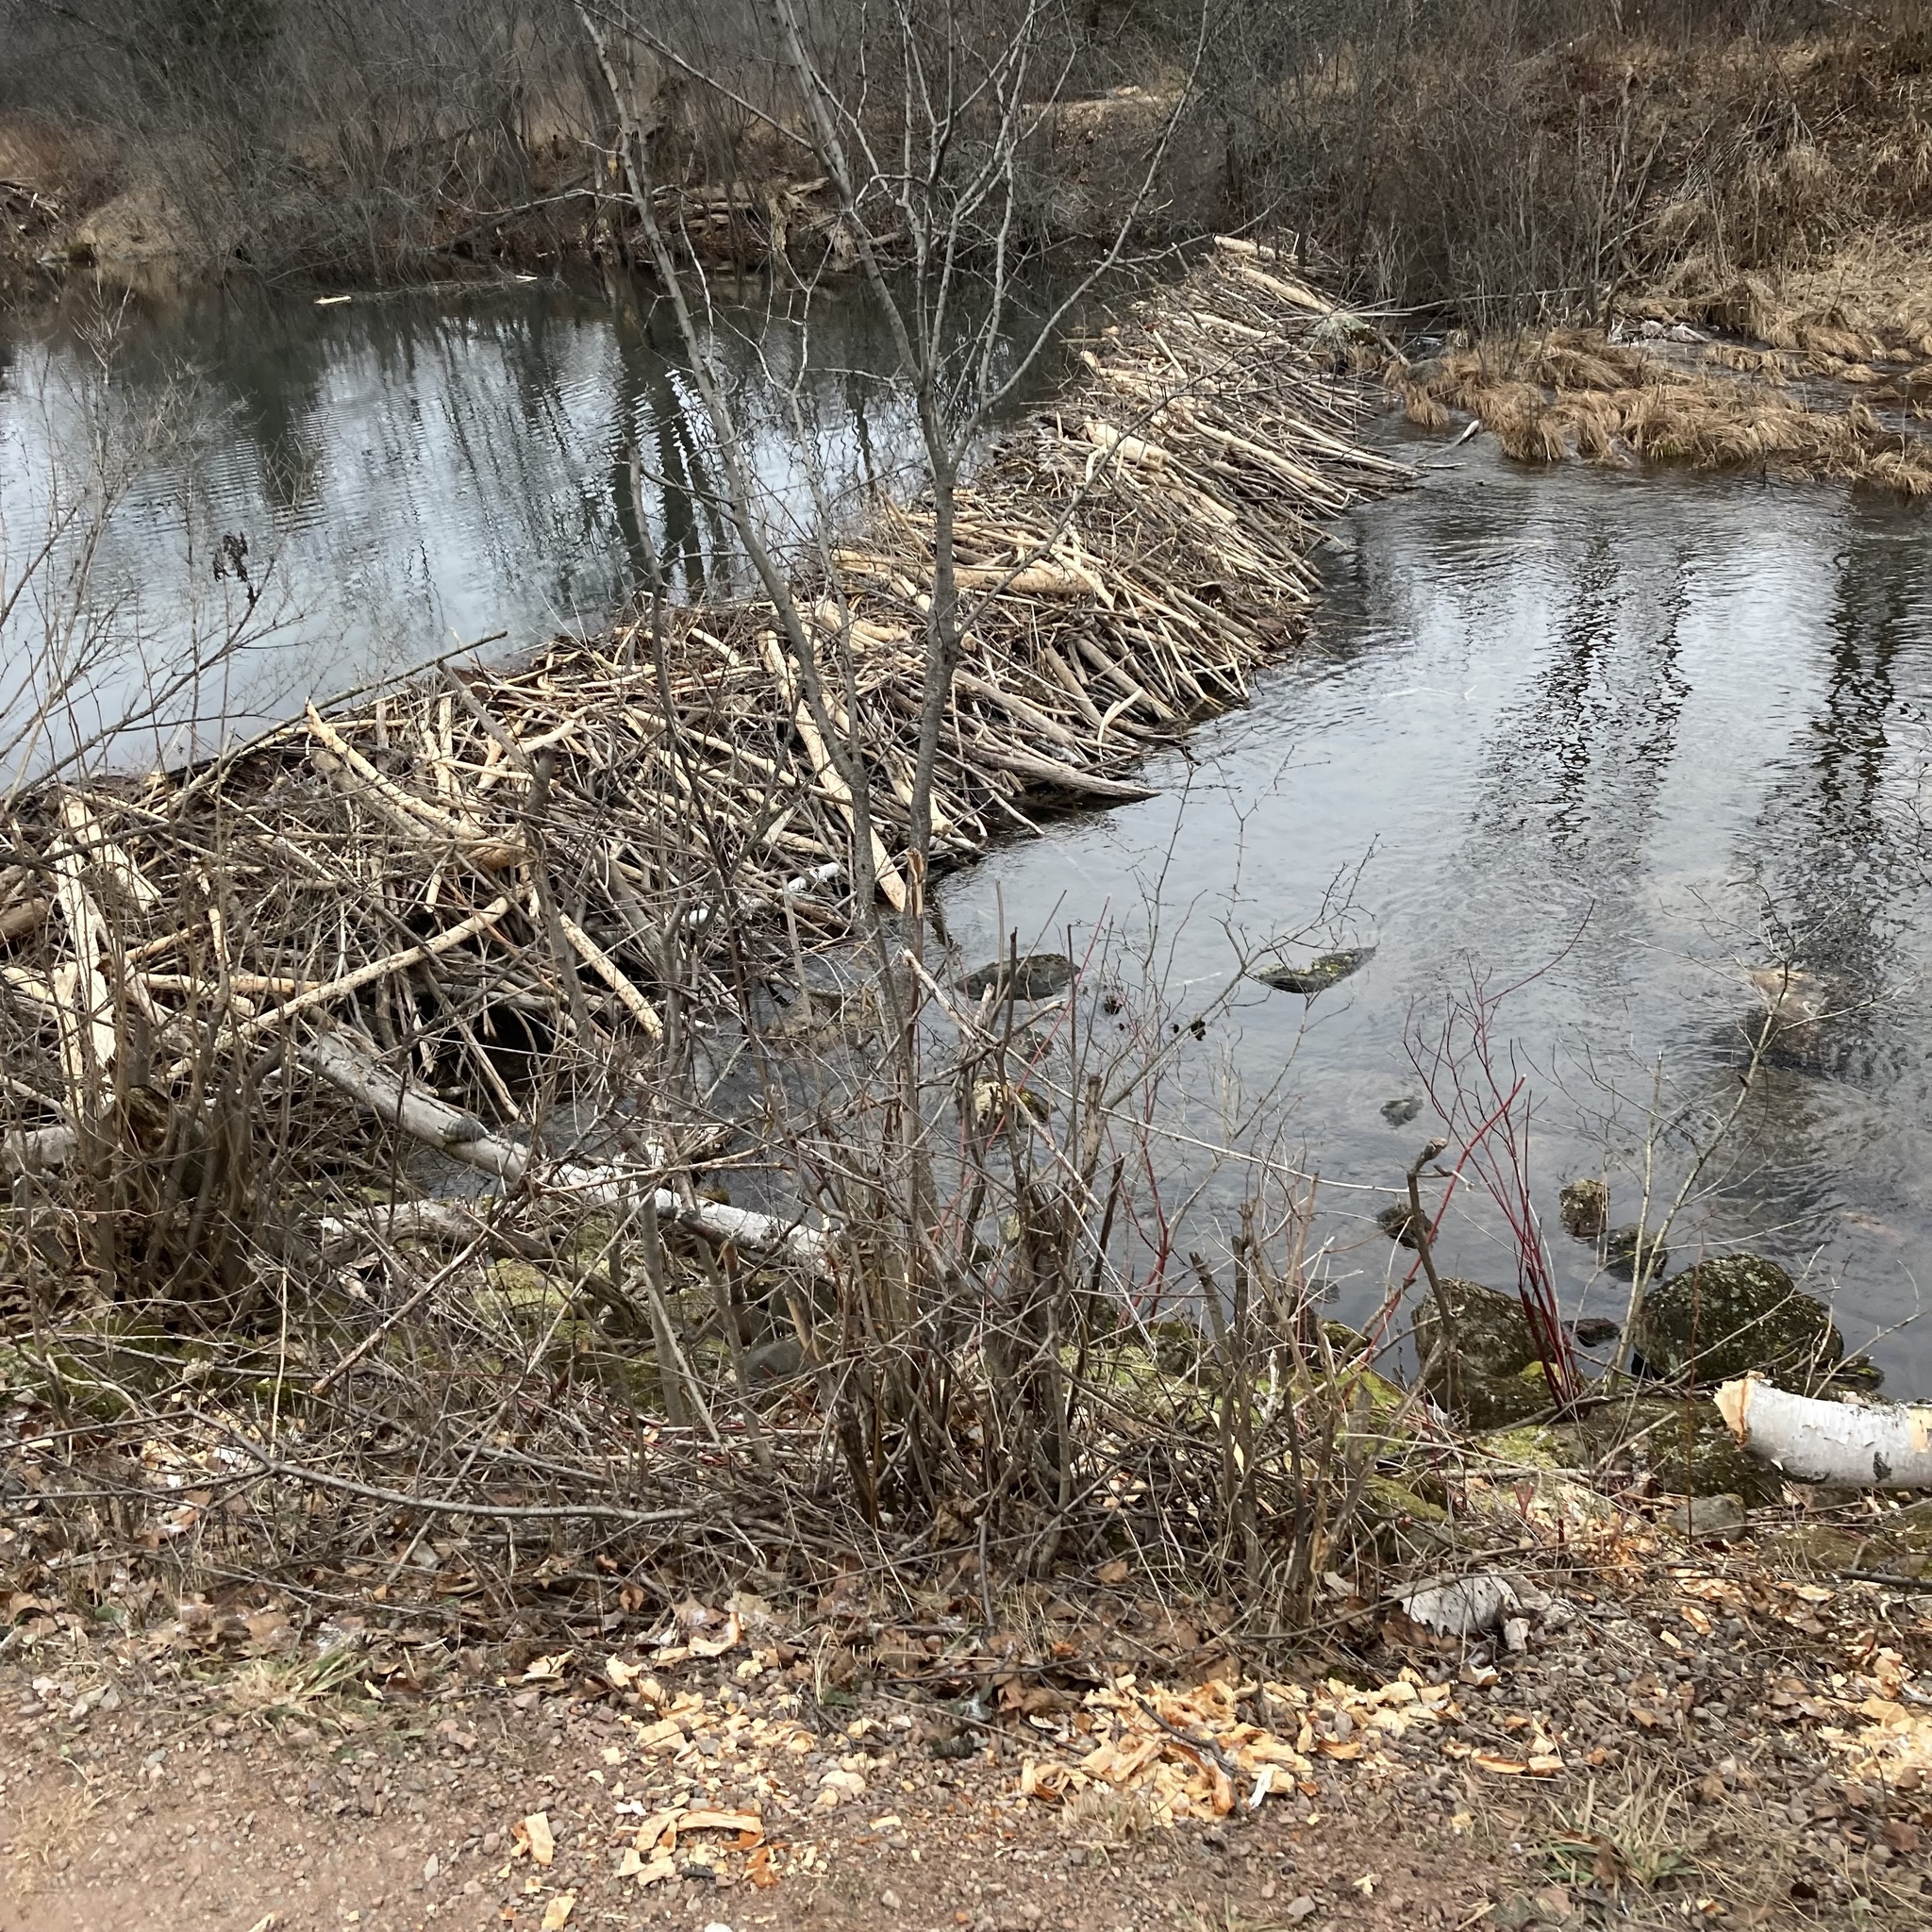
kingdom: Animalia
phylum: Chordata
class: Mammalia
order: Rodentia
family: Castoridae
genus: Castor
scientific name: Castor canadensis
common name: American beaver
